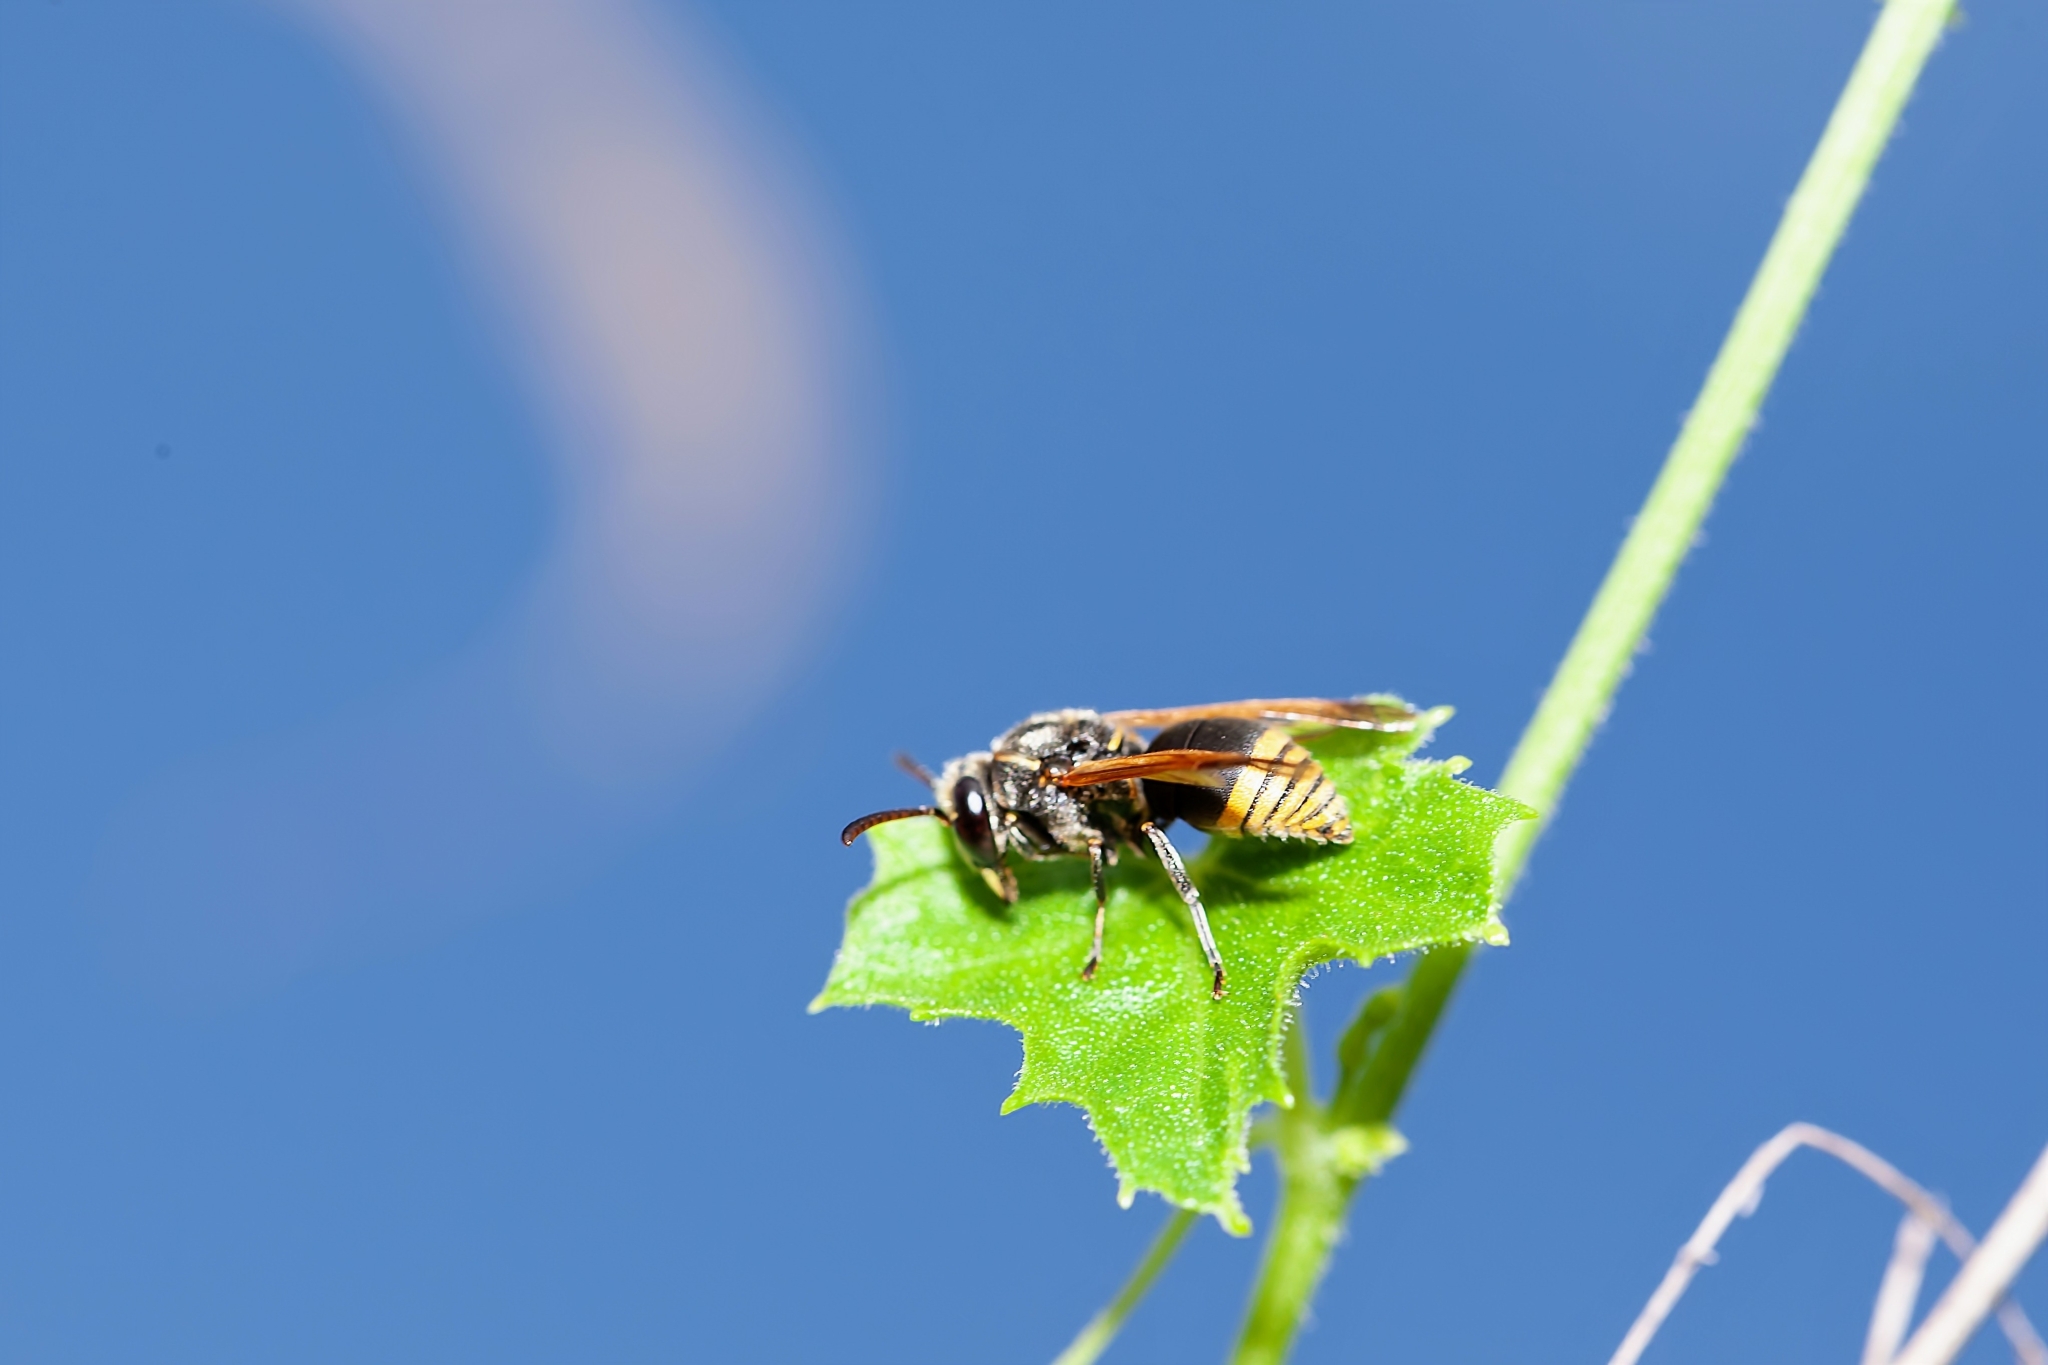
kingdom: Animalia
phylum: Arthropoda
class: Insecta
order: Hymenoptera
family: Eumenidae
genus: Pachodynerus
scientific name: Pachodynerus nasidens
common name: Key hole wasp
